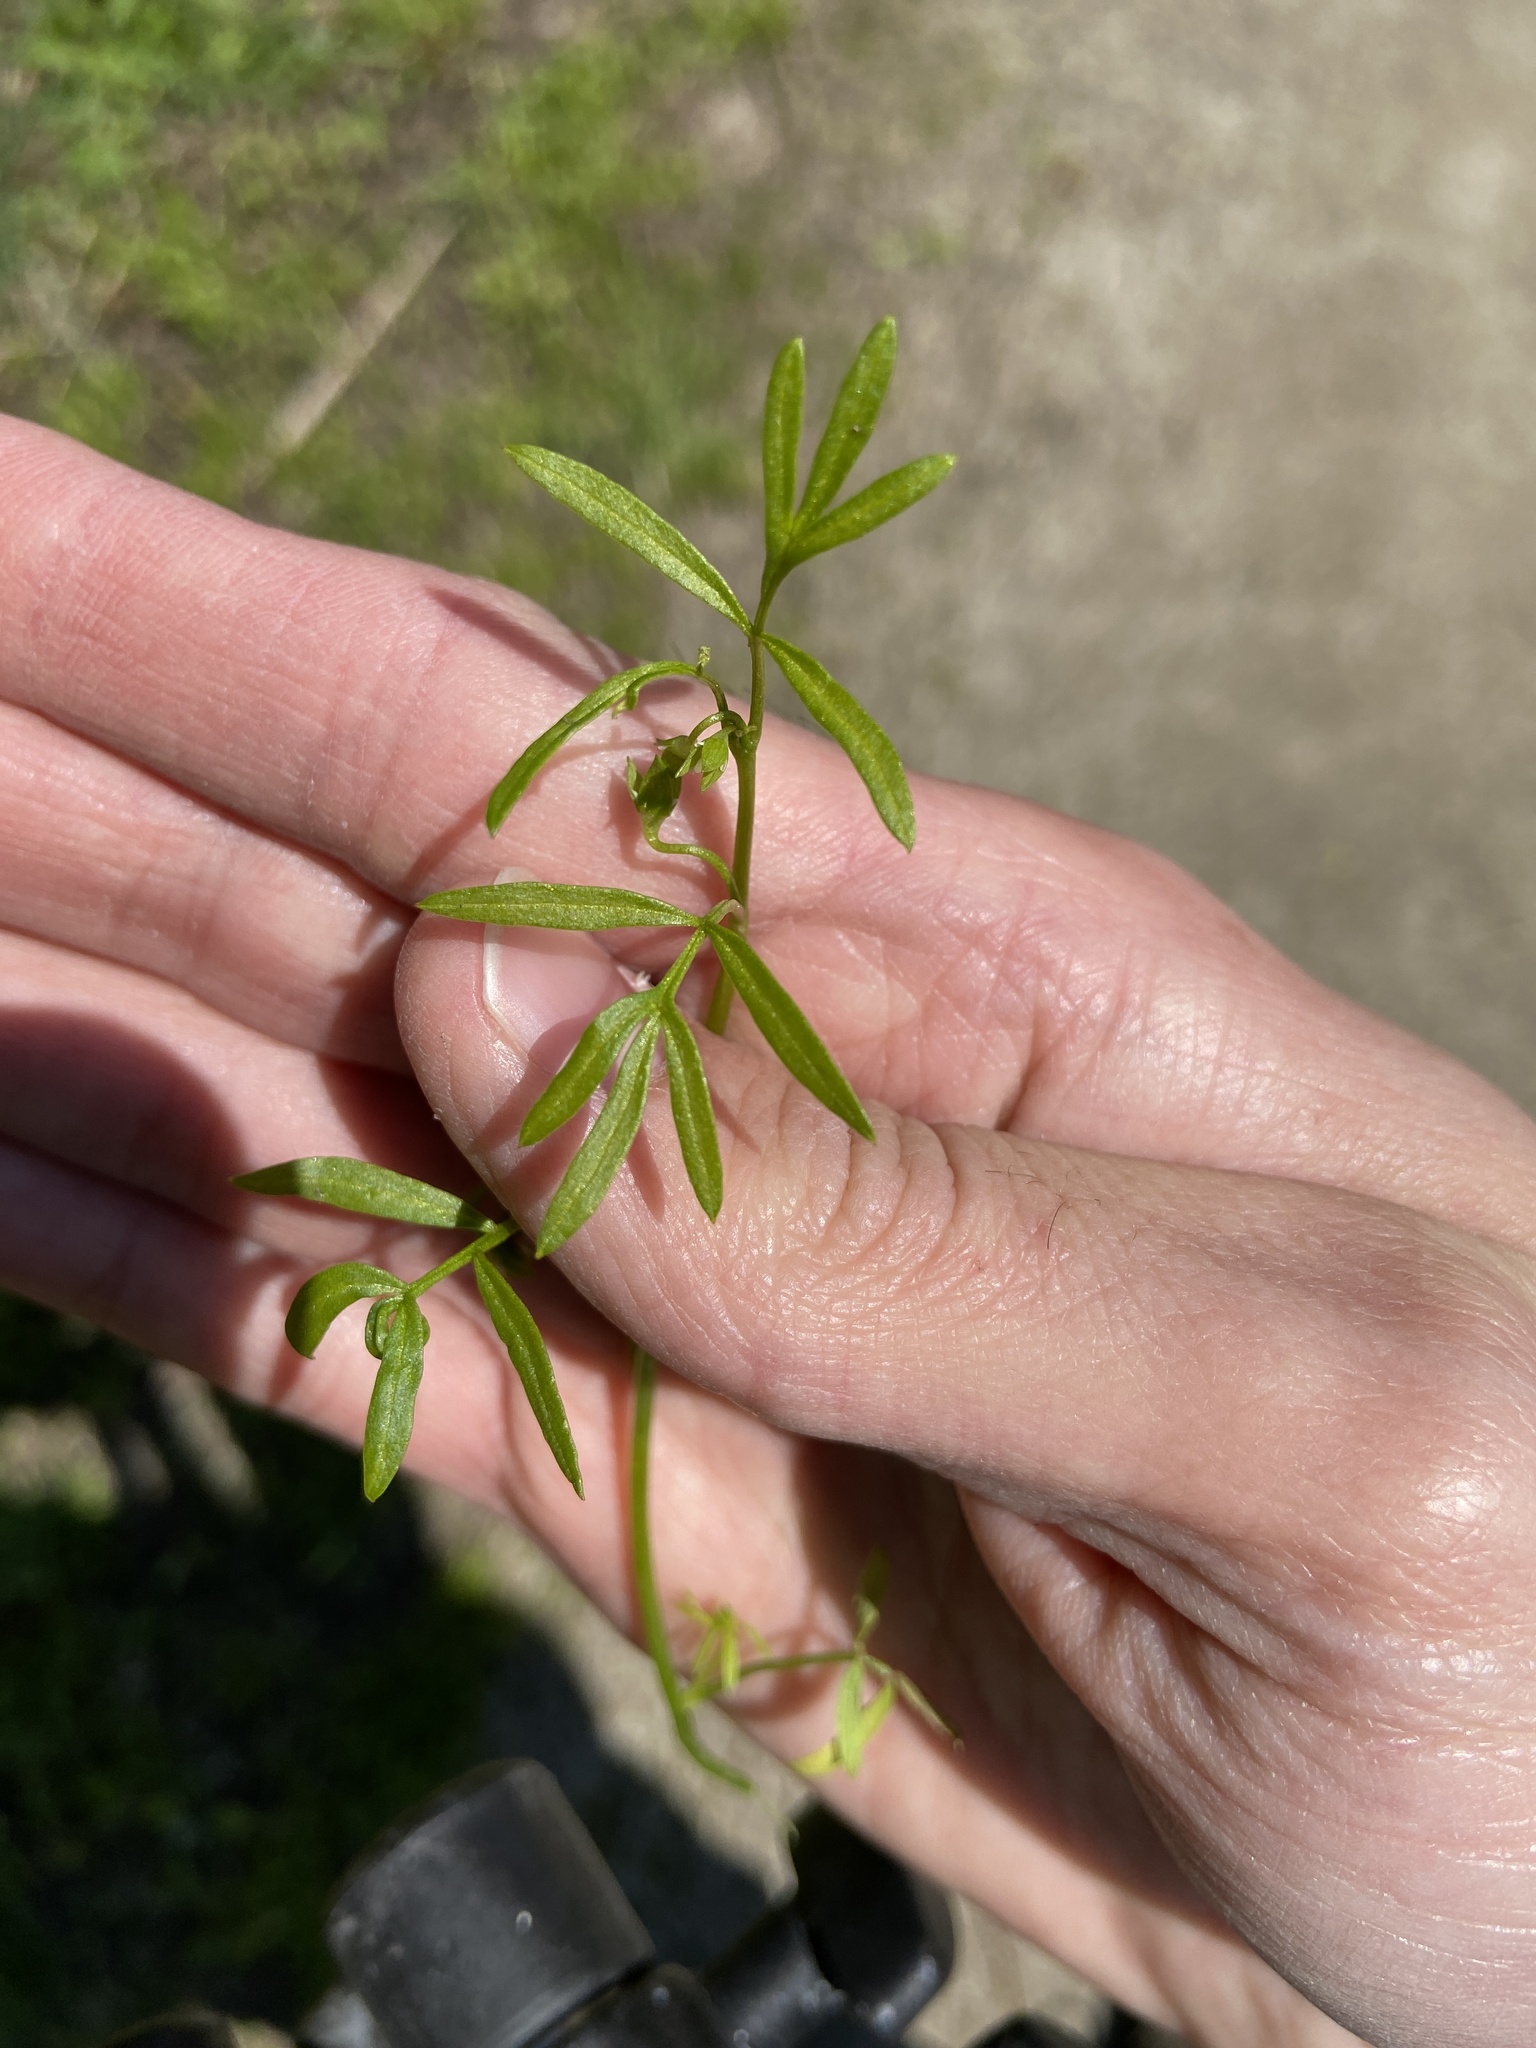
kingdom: Plantae
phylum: Tracheophyta
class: Magnoliopsida
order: Brassicales
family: Limnanthaceae
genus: Floerkea
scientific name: Floerkea proserpinacoides
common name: False mermaid
